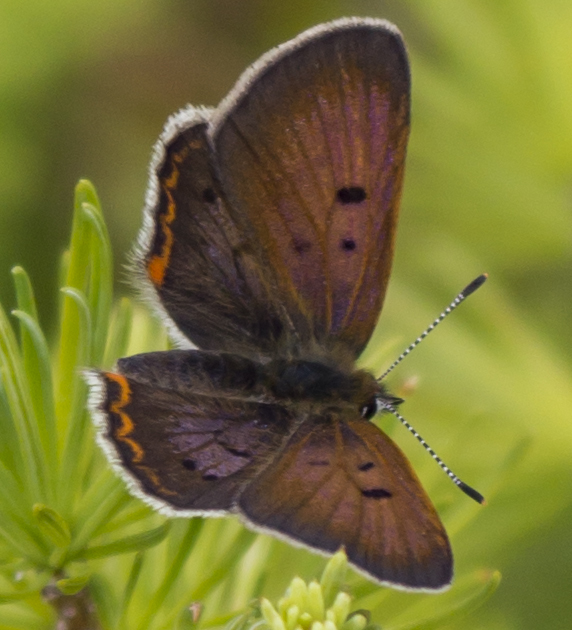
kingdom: Animalia
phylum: Arthropoda
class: Insecta
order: Lepidoptera
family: Lycaenidae
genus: Tharsalea
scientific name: Tharsalea epixanthe
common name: Bog copper
